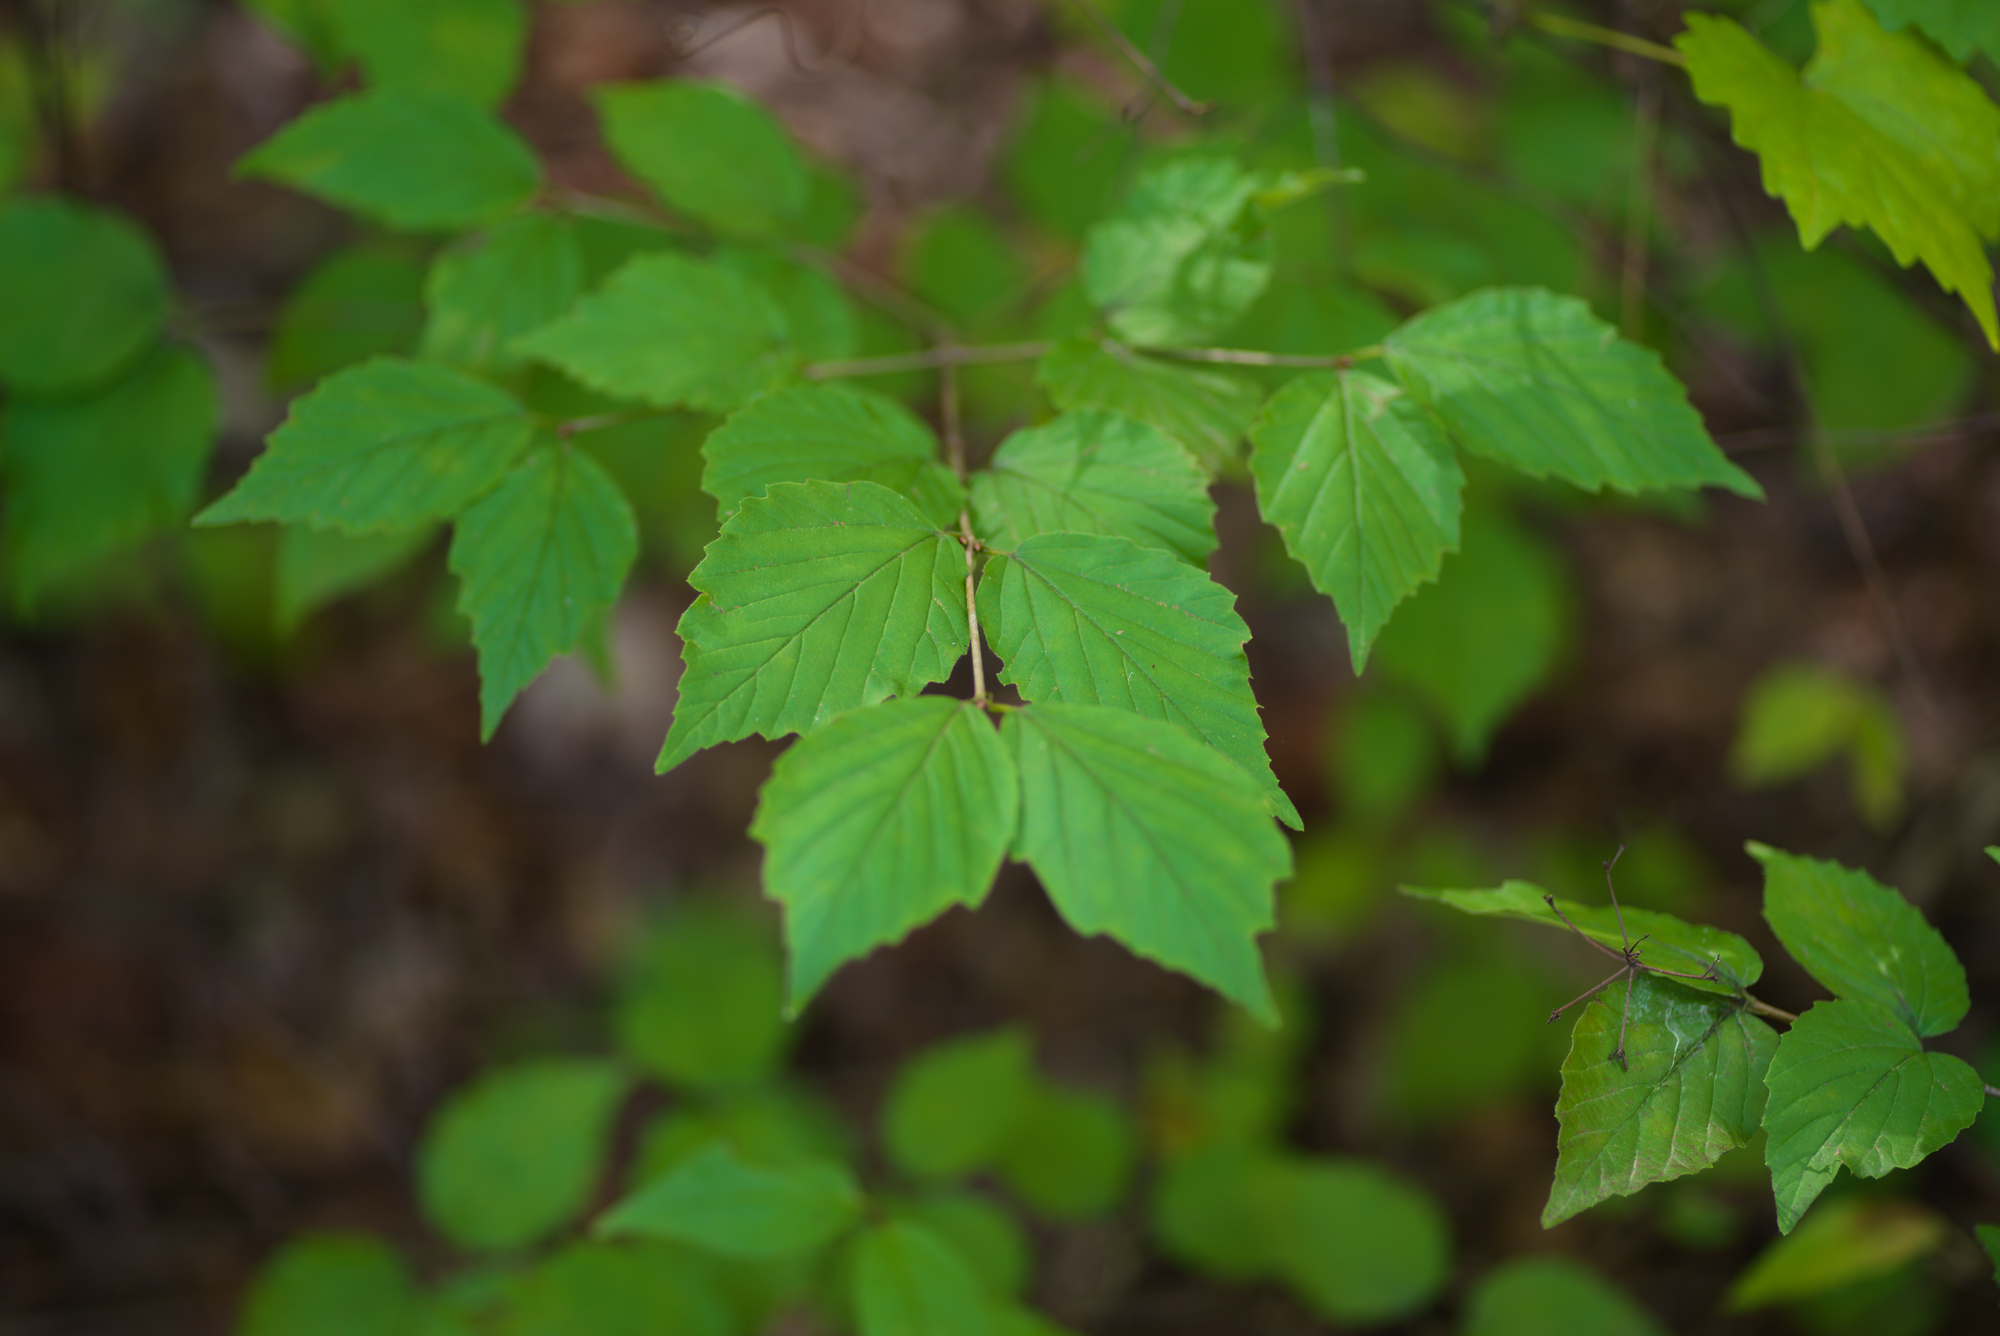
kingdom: Plantae
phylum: Tracheophyta
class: Magnoliopsida
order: Dipsacales
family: Viburnaceae
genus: Viburnum
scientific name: Viburnum rafinesqueanum
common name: Downy arrow-wood
